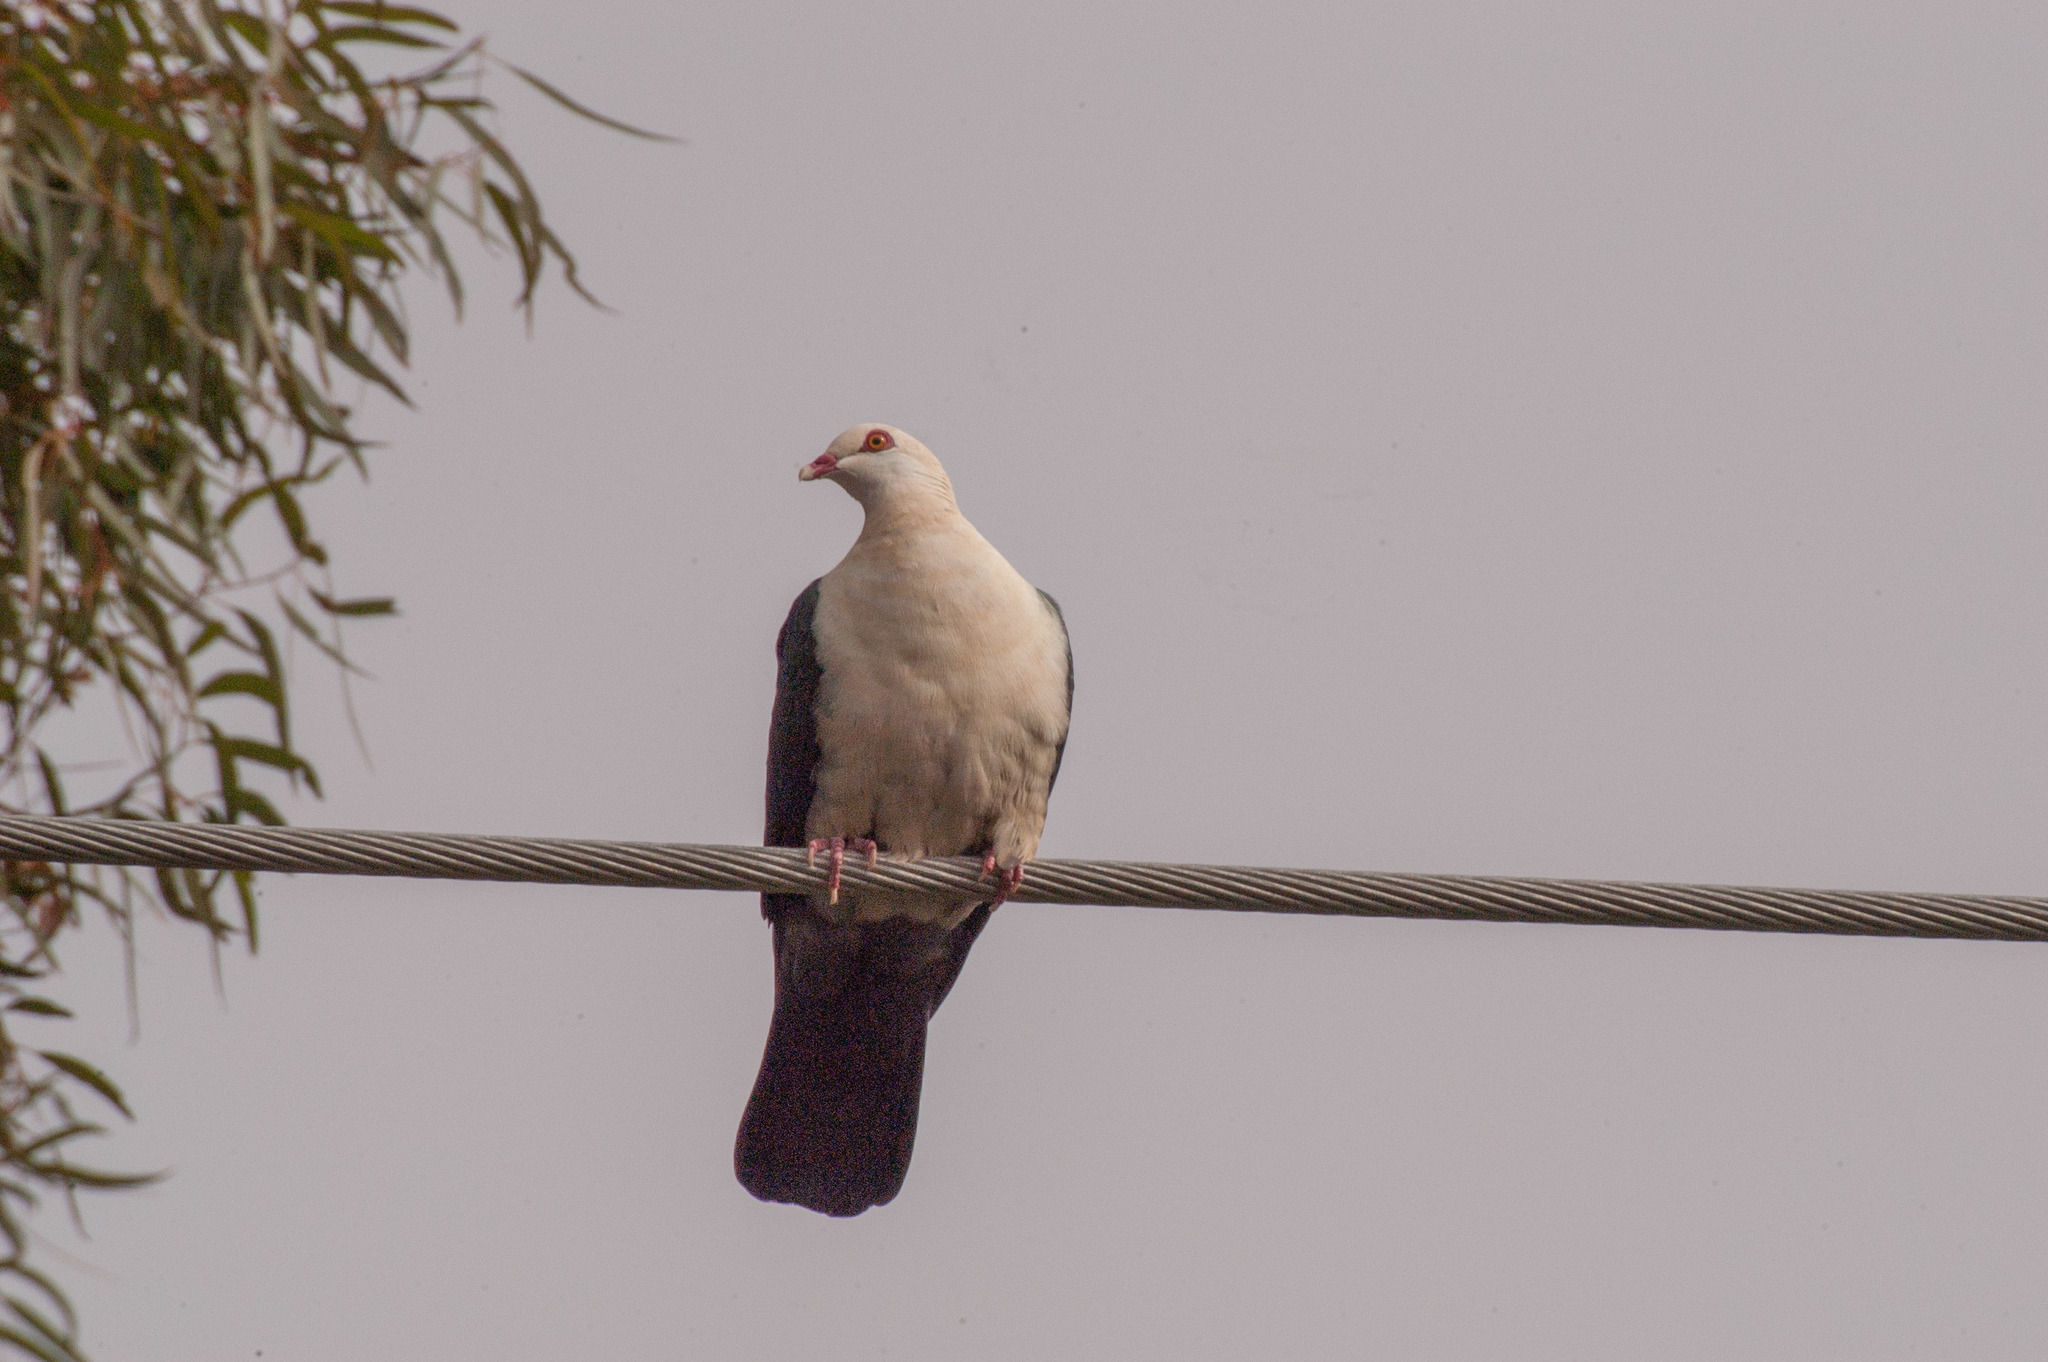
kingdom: Animalia
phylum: Chordata
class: Aves
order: Columbiformes
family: Columbidae
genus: Columba
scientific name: Columba leucomela
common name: White-headed pigeon
